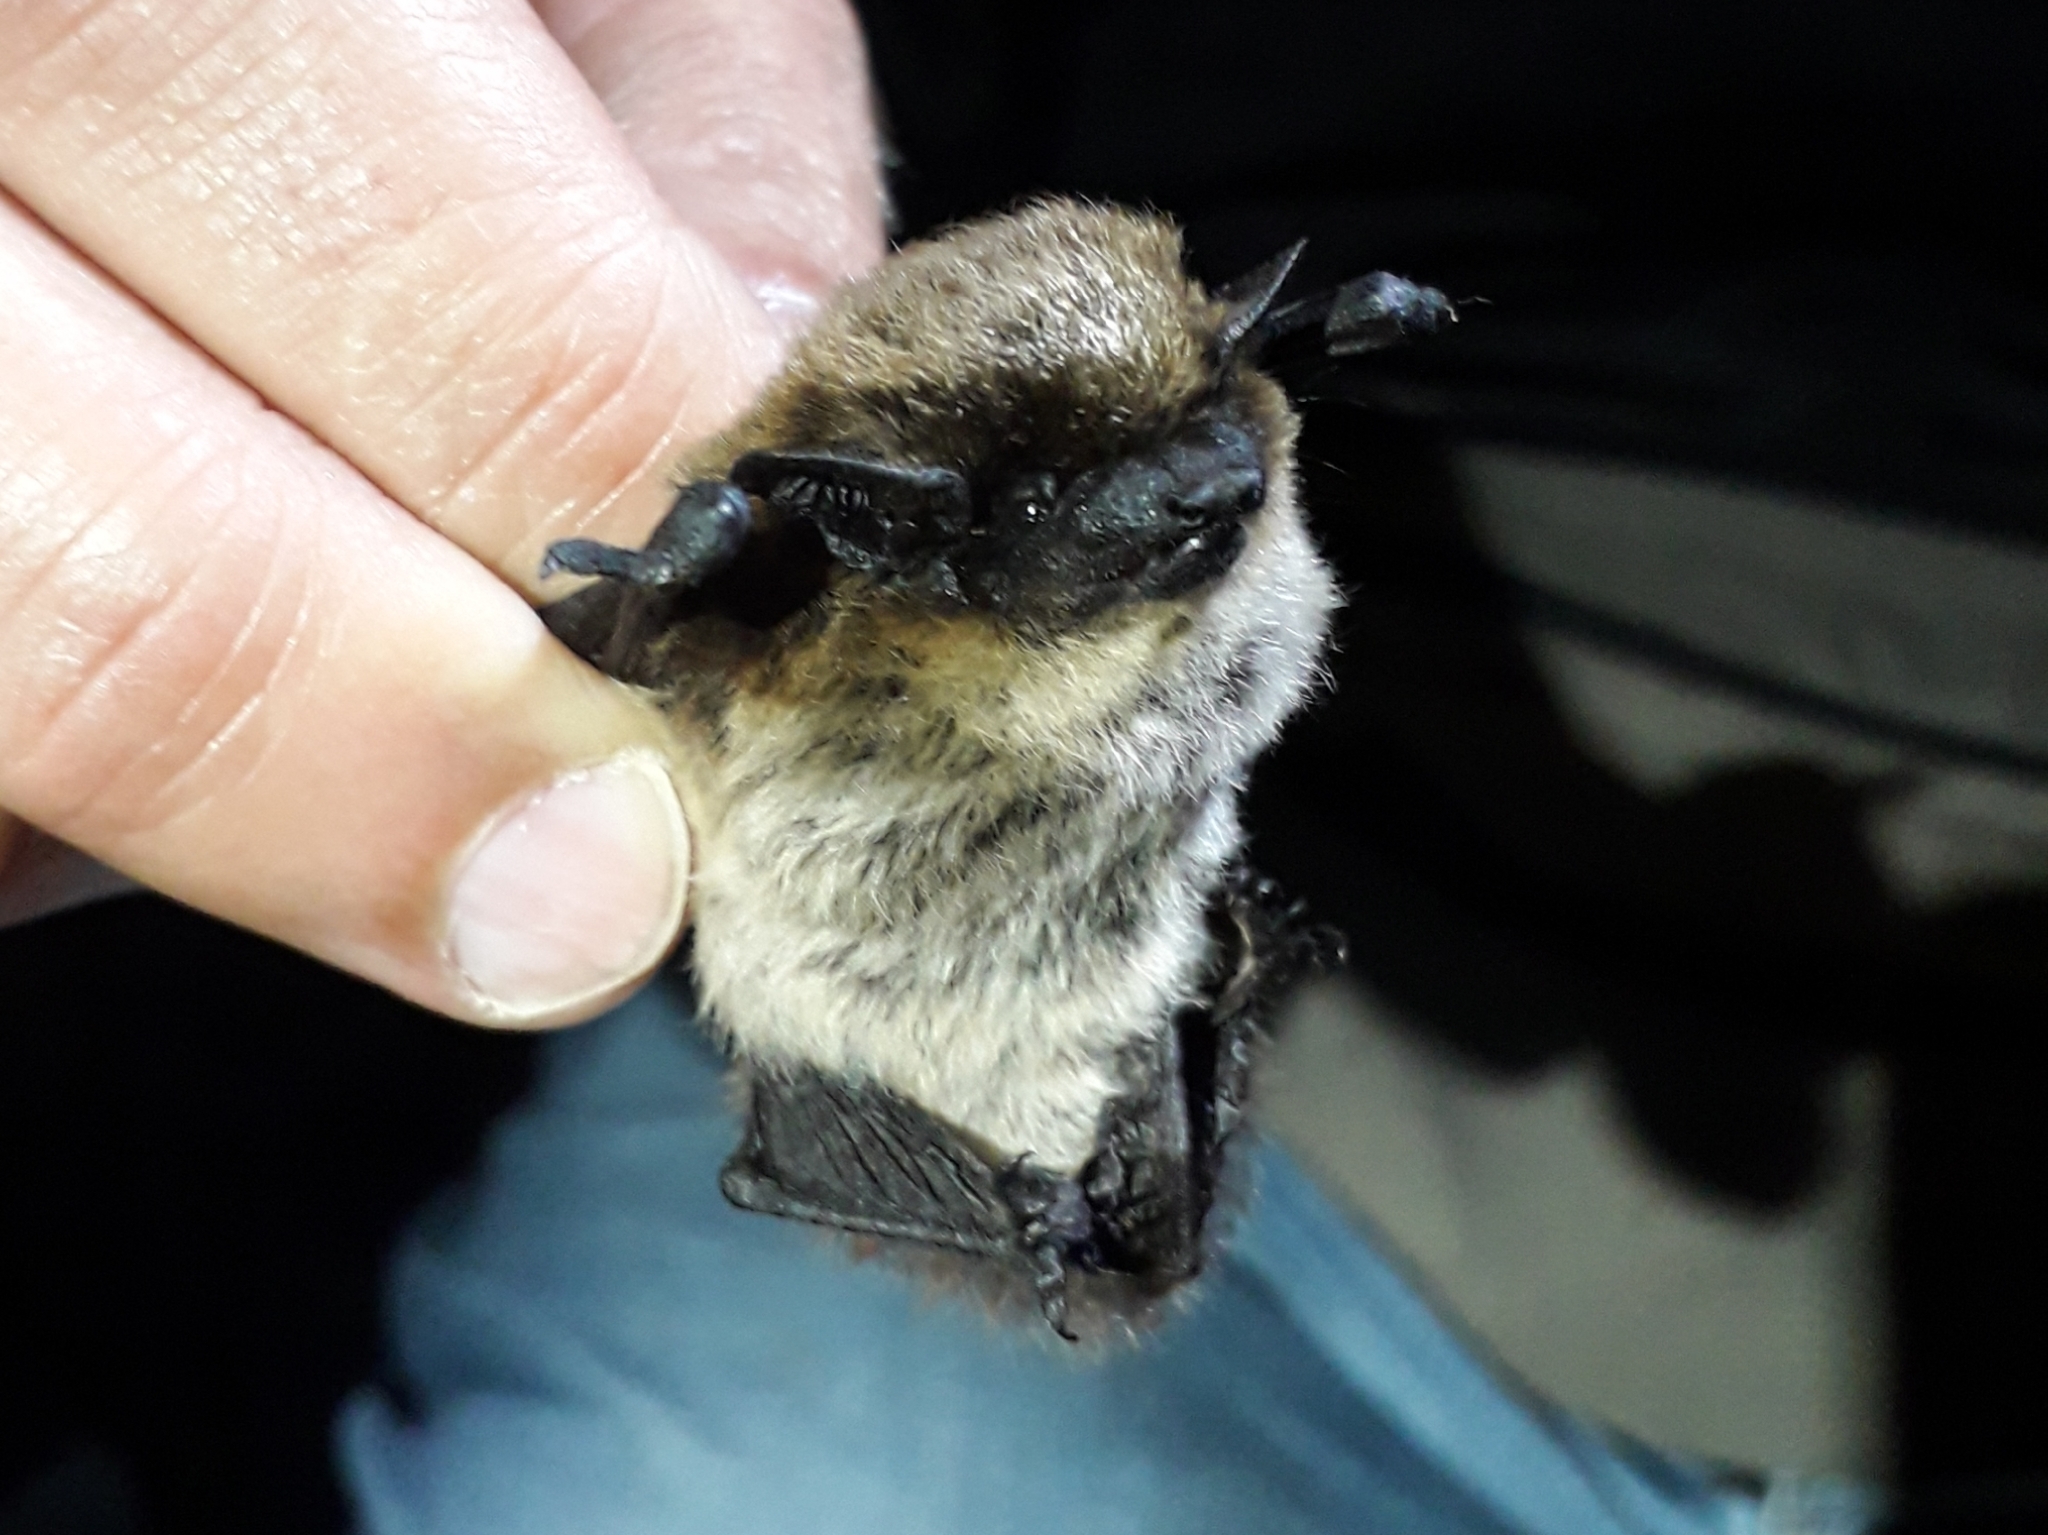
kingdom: Animalia
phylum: Chordata
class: Mammalia
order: Chiroptera
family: Vespertilionidae
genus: Hypsugo
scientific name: Hypsugo savii
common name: Savi's pipistrelle
